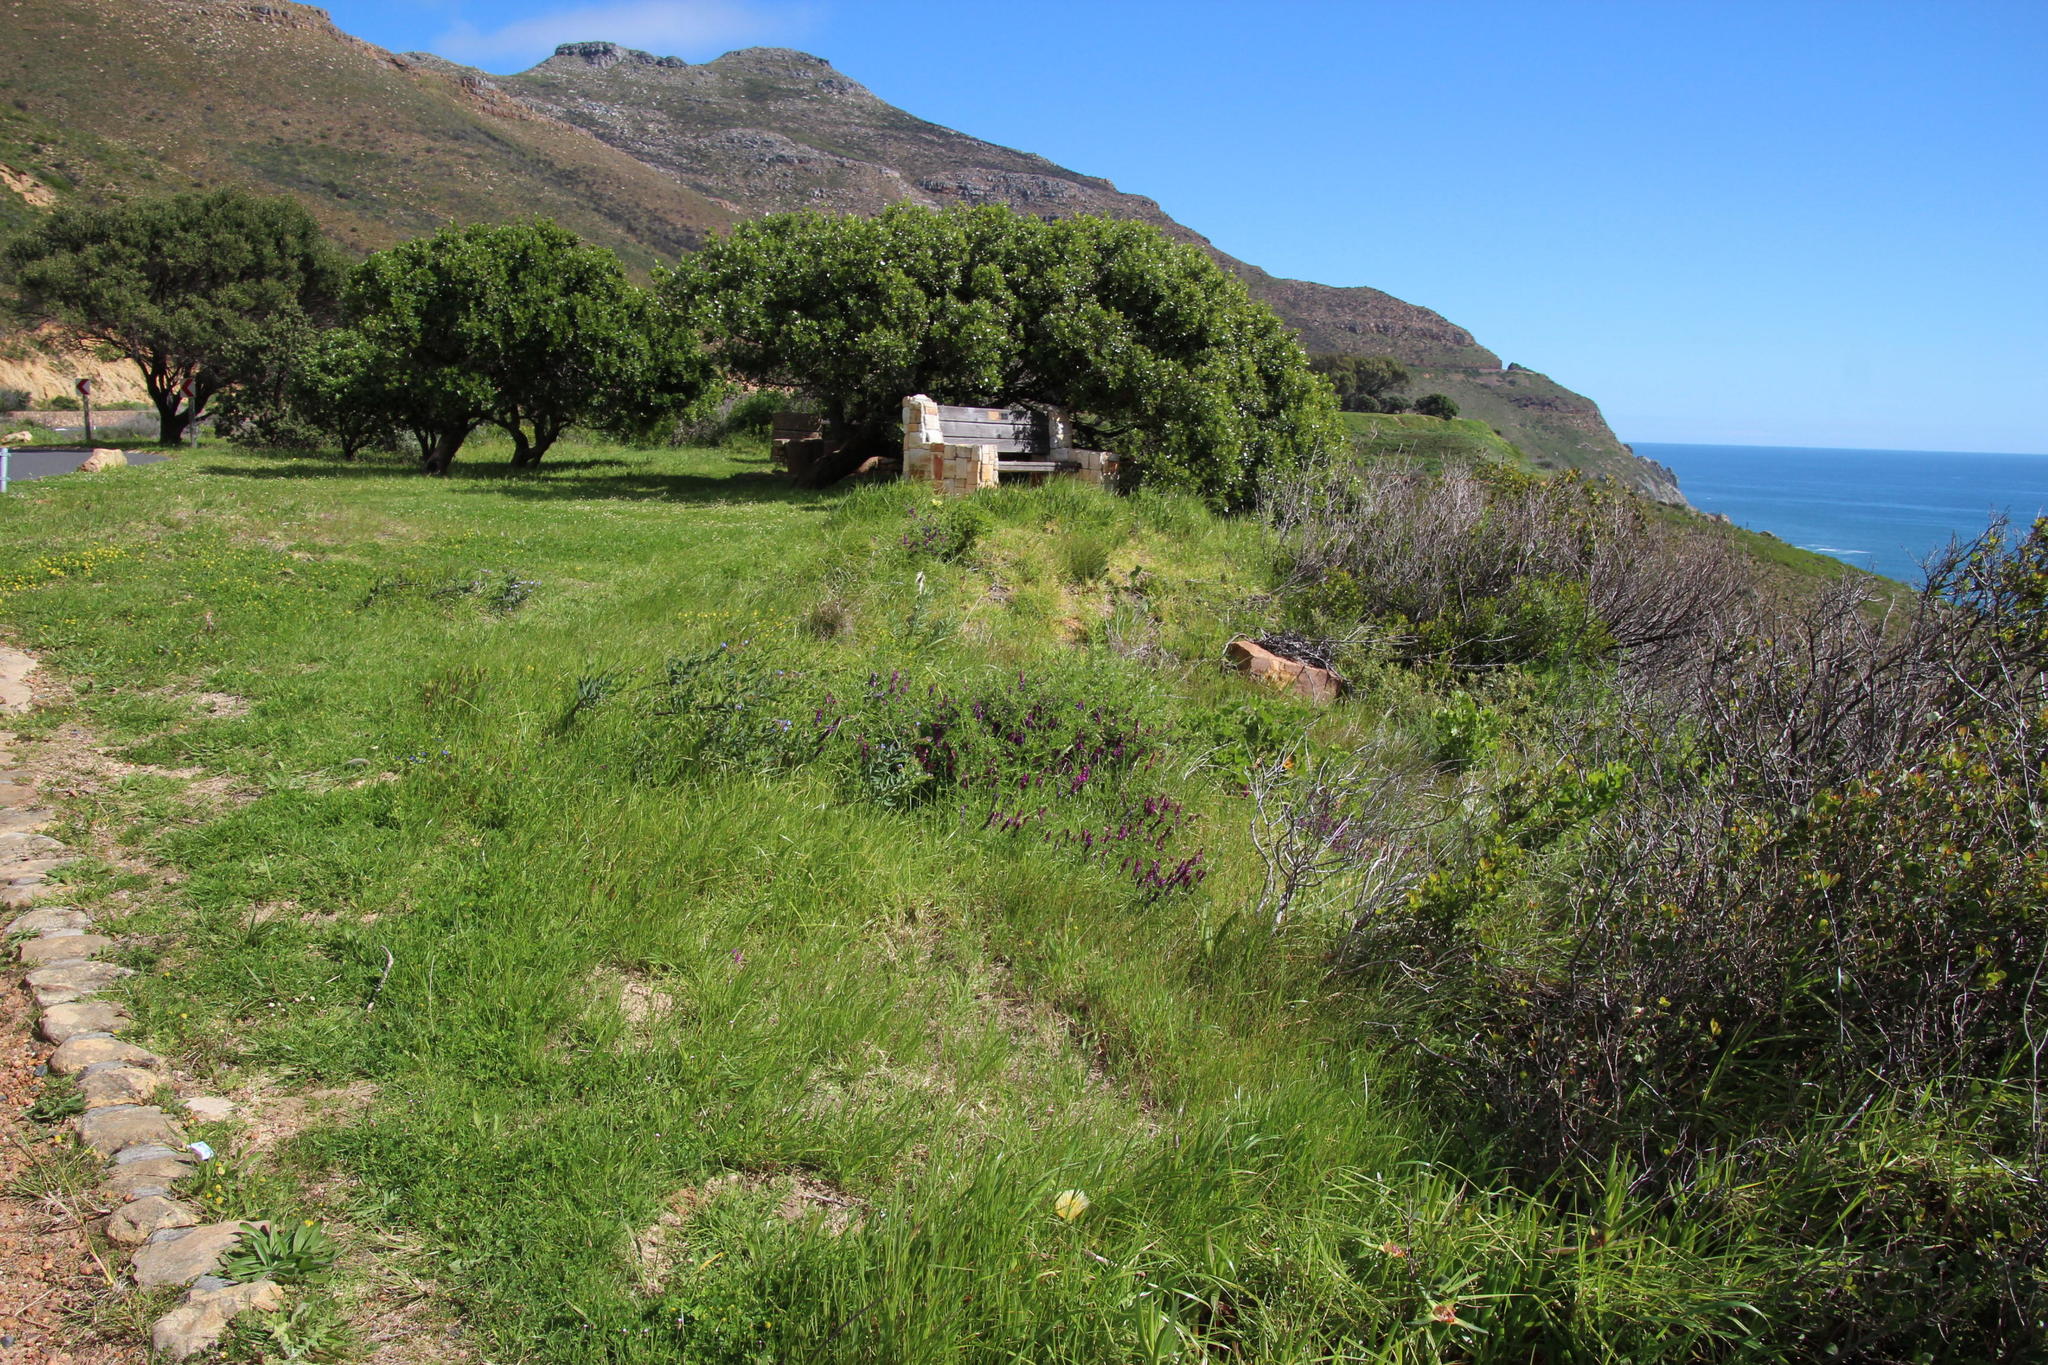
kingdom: Plantae
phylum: Tracheophyta
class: Magnoliopsida
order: Ericales
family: Sapotaceae
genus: Sideroxylon
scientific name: Sideroxylon inerme
